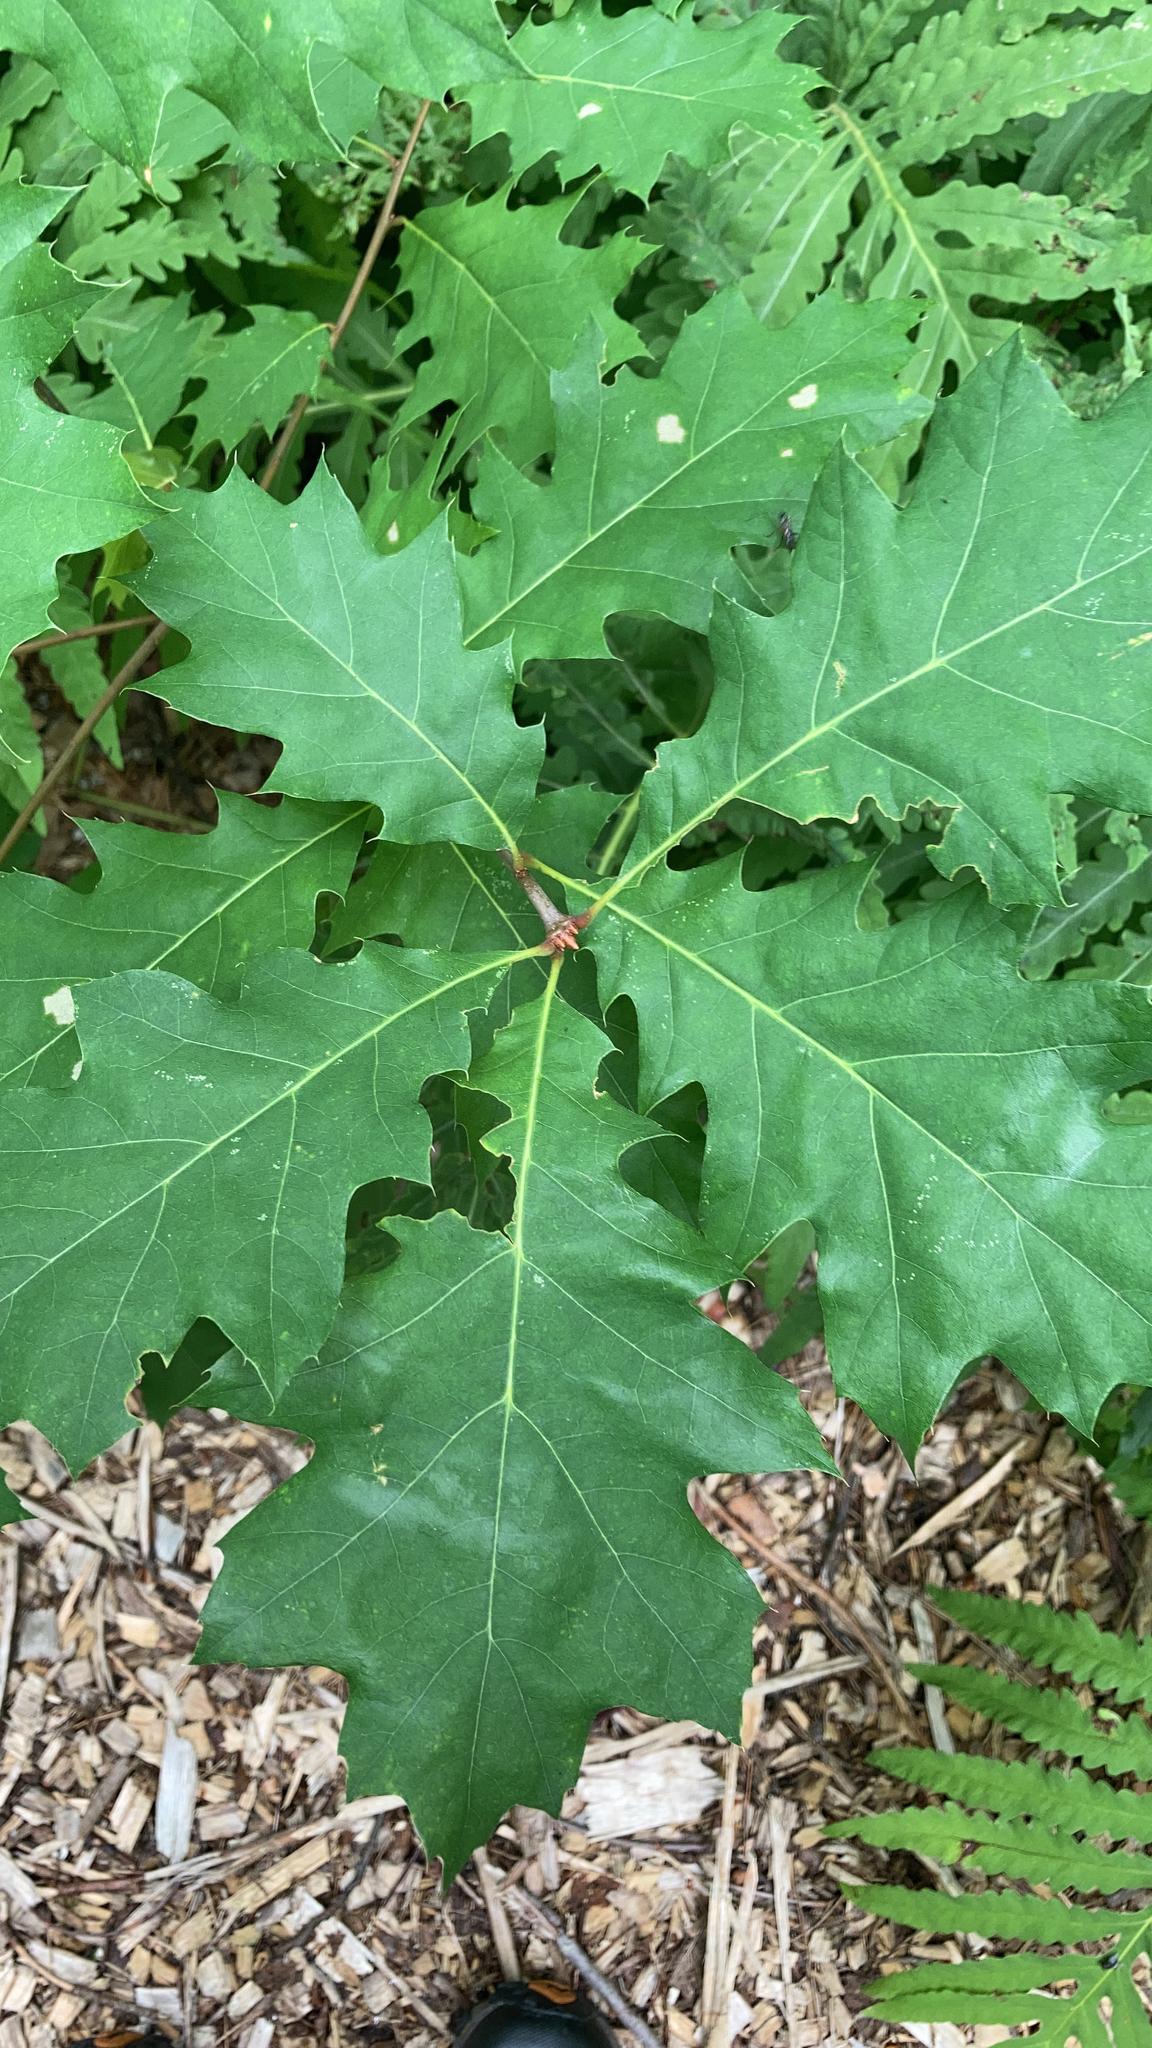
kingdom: Plantae
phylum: Tracheophyta
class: Magnoliopsida
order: Fagales
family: Fagaceae
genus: Quercus
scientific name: Quercus rubra
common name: Red oak
